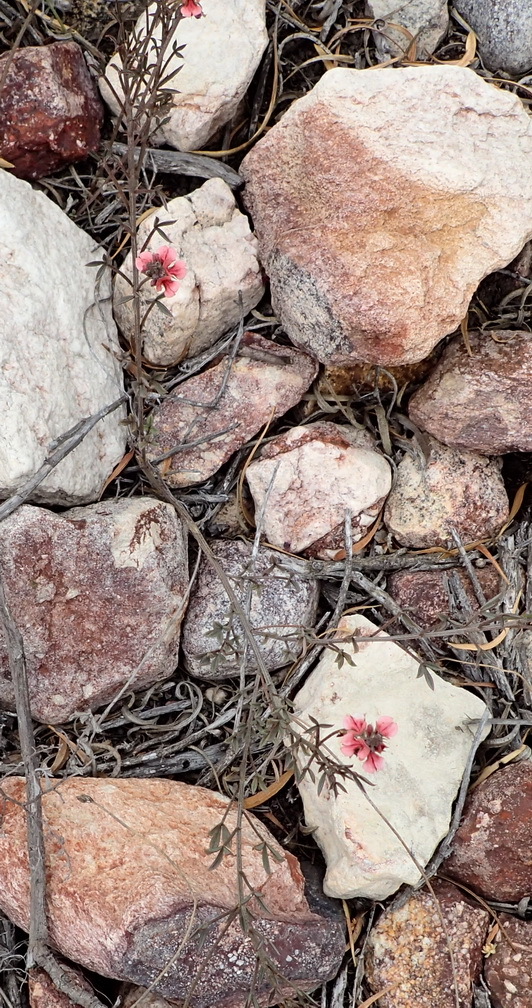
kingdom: Plantae
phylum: Tracheophyta
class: Magnoliopsida
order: Fabales
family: Fabaceae
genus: Indigofera
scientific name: Indigofera heterophylla
